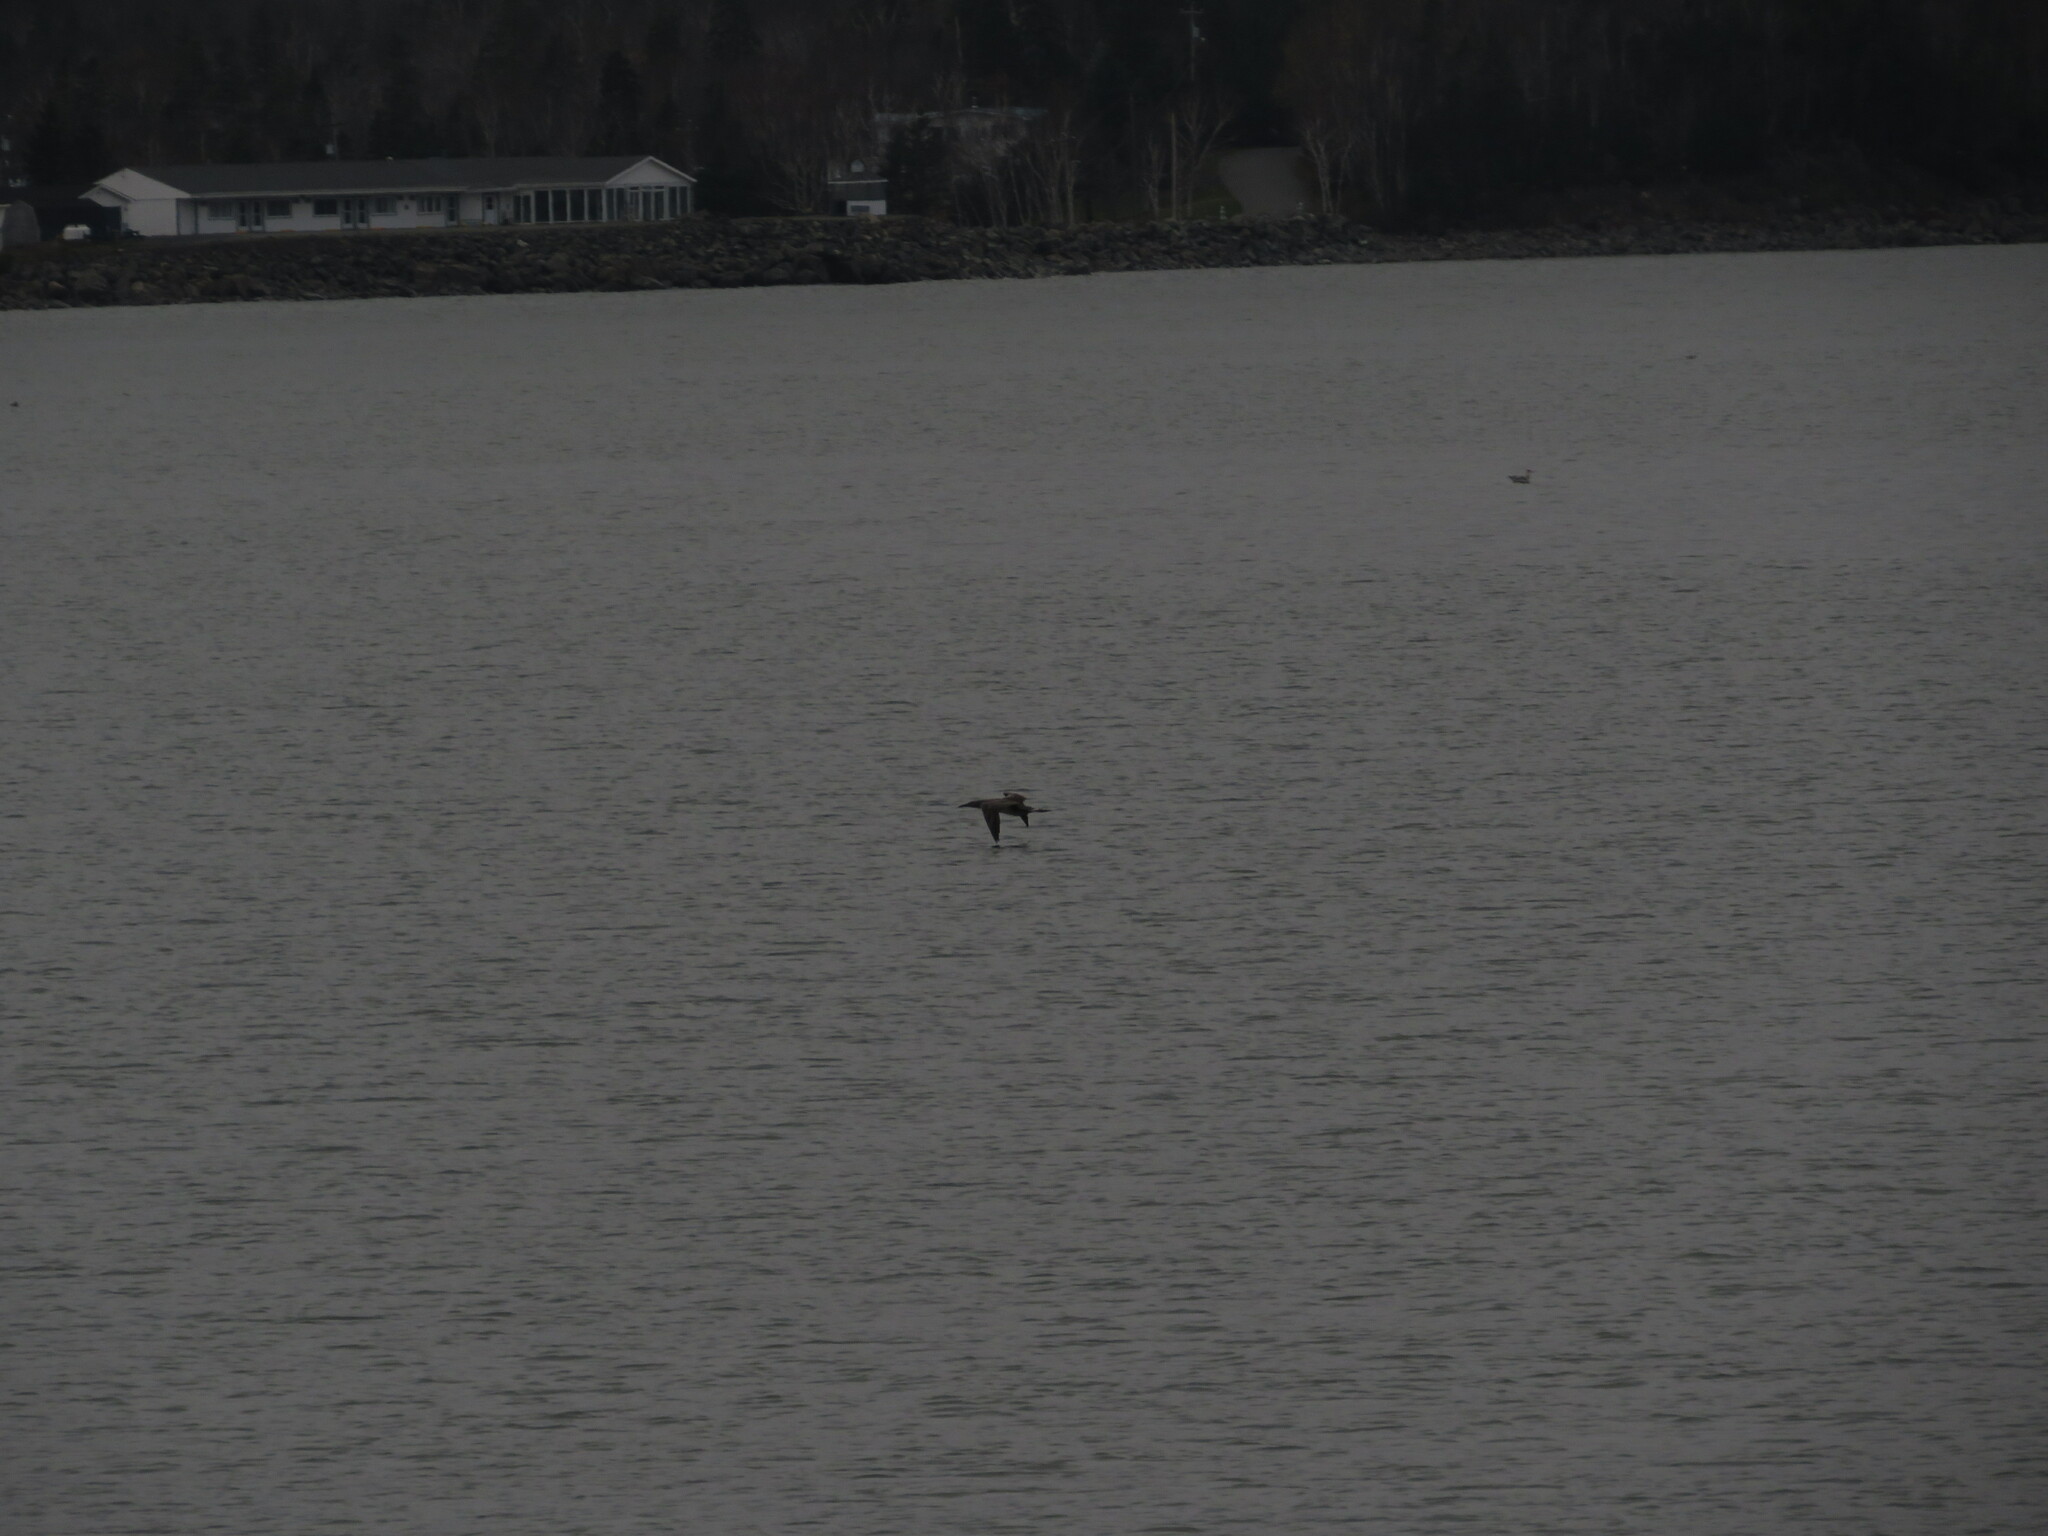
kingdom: Animalia
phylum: Chordata
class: Aves
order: Suliformes
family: Sulidae
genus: Morus
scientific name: Morus bassanus
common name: Northern gannet
